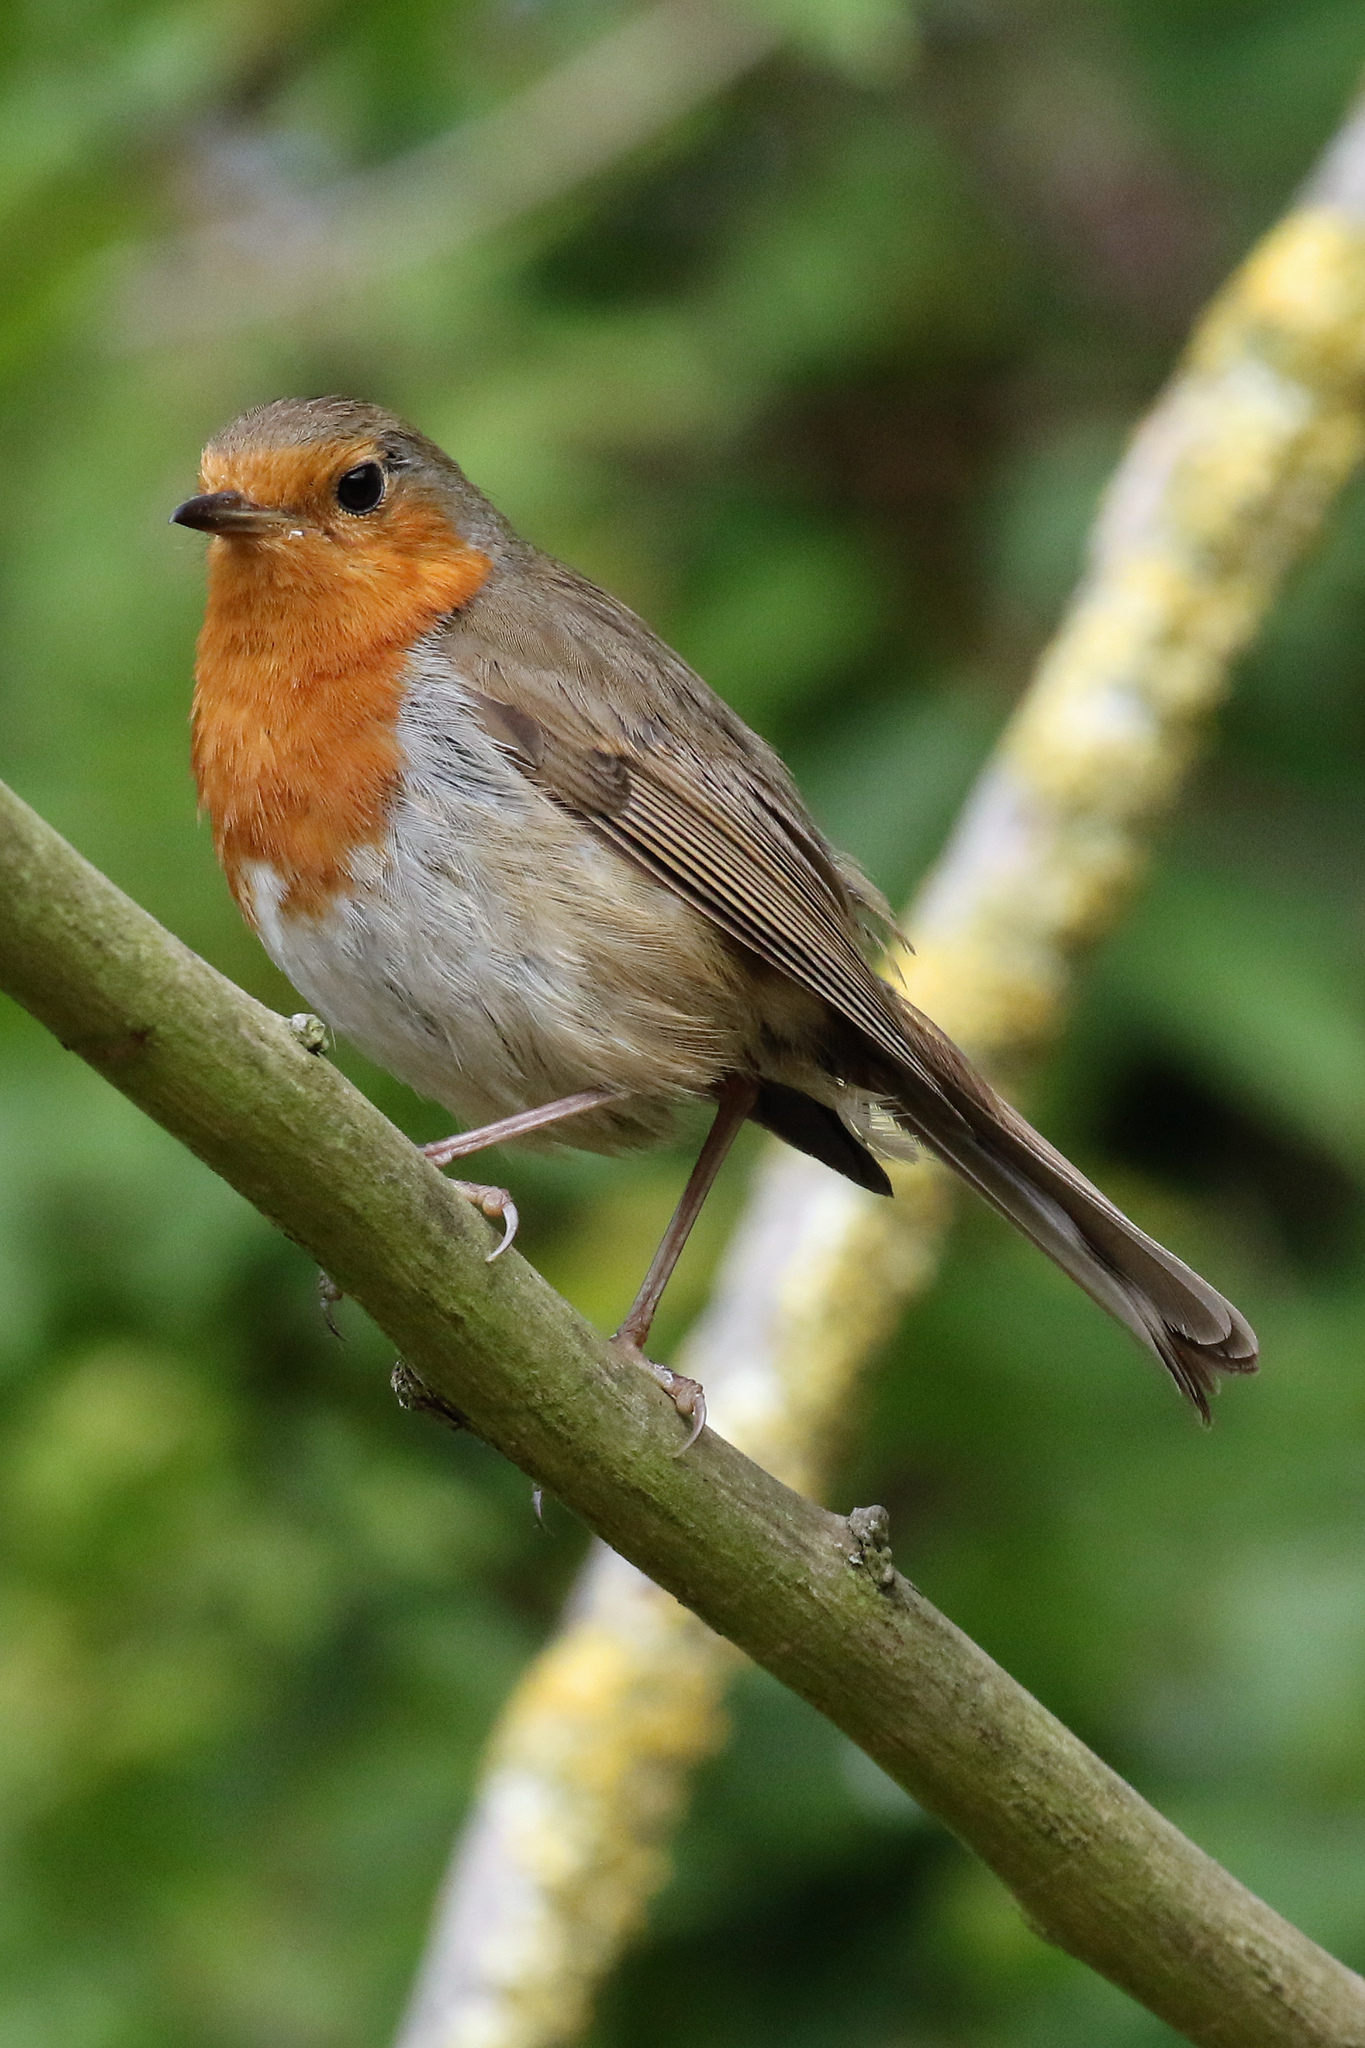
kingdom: Animalia
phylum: Chordata
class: Aves
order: Passeriformes
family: Muscicapidae
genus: Erithacus
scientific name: Erithacus rubecula
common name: European robin
